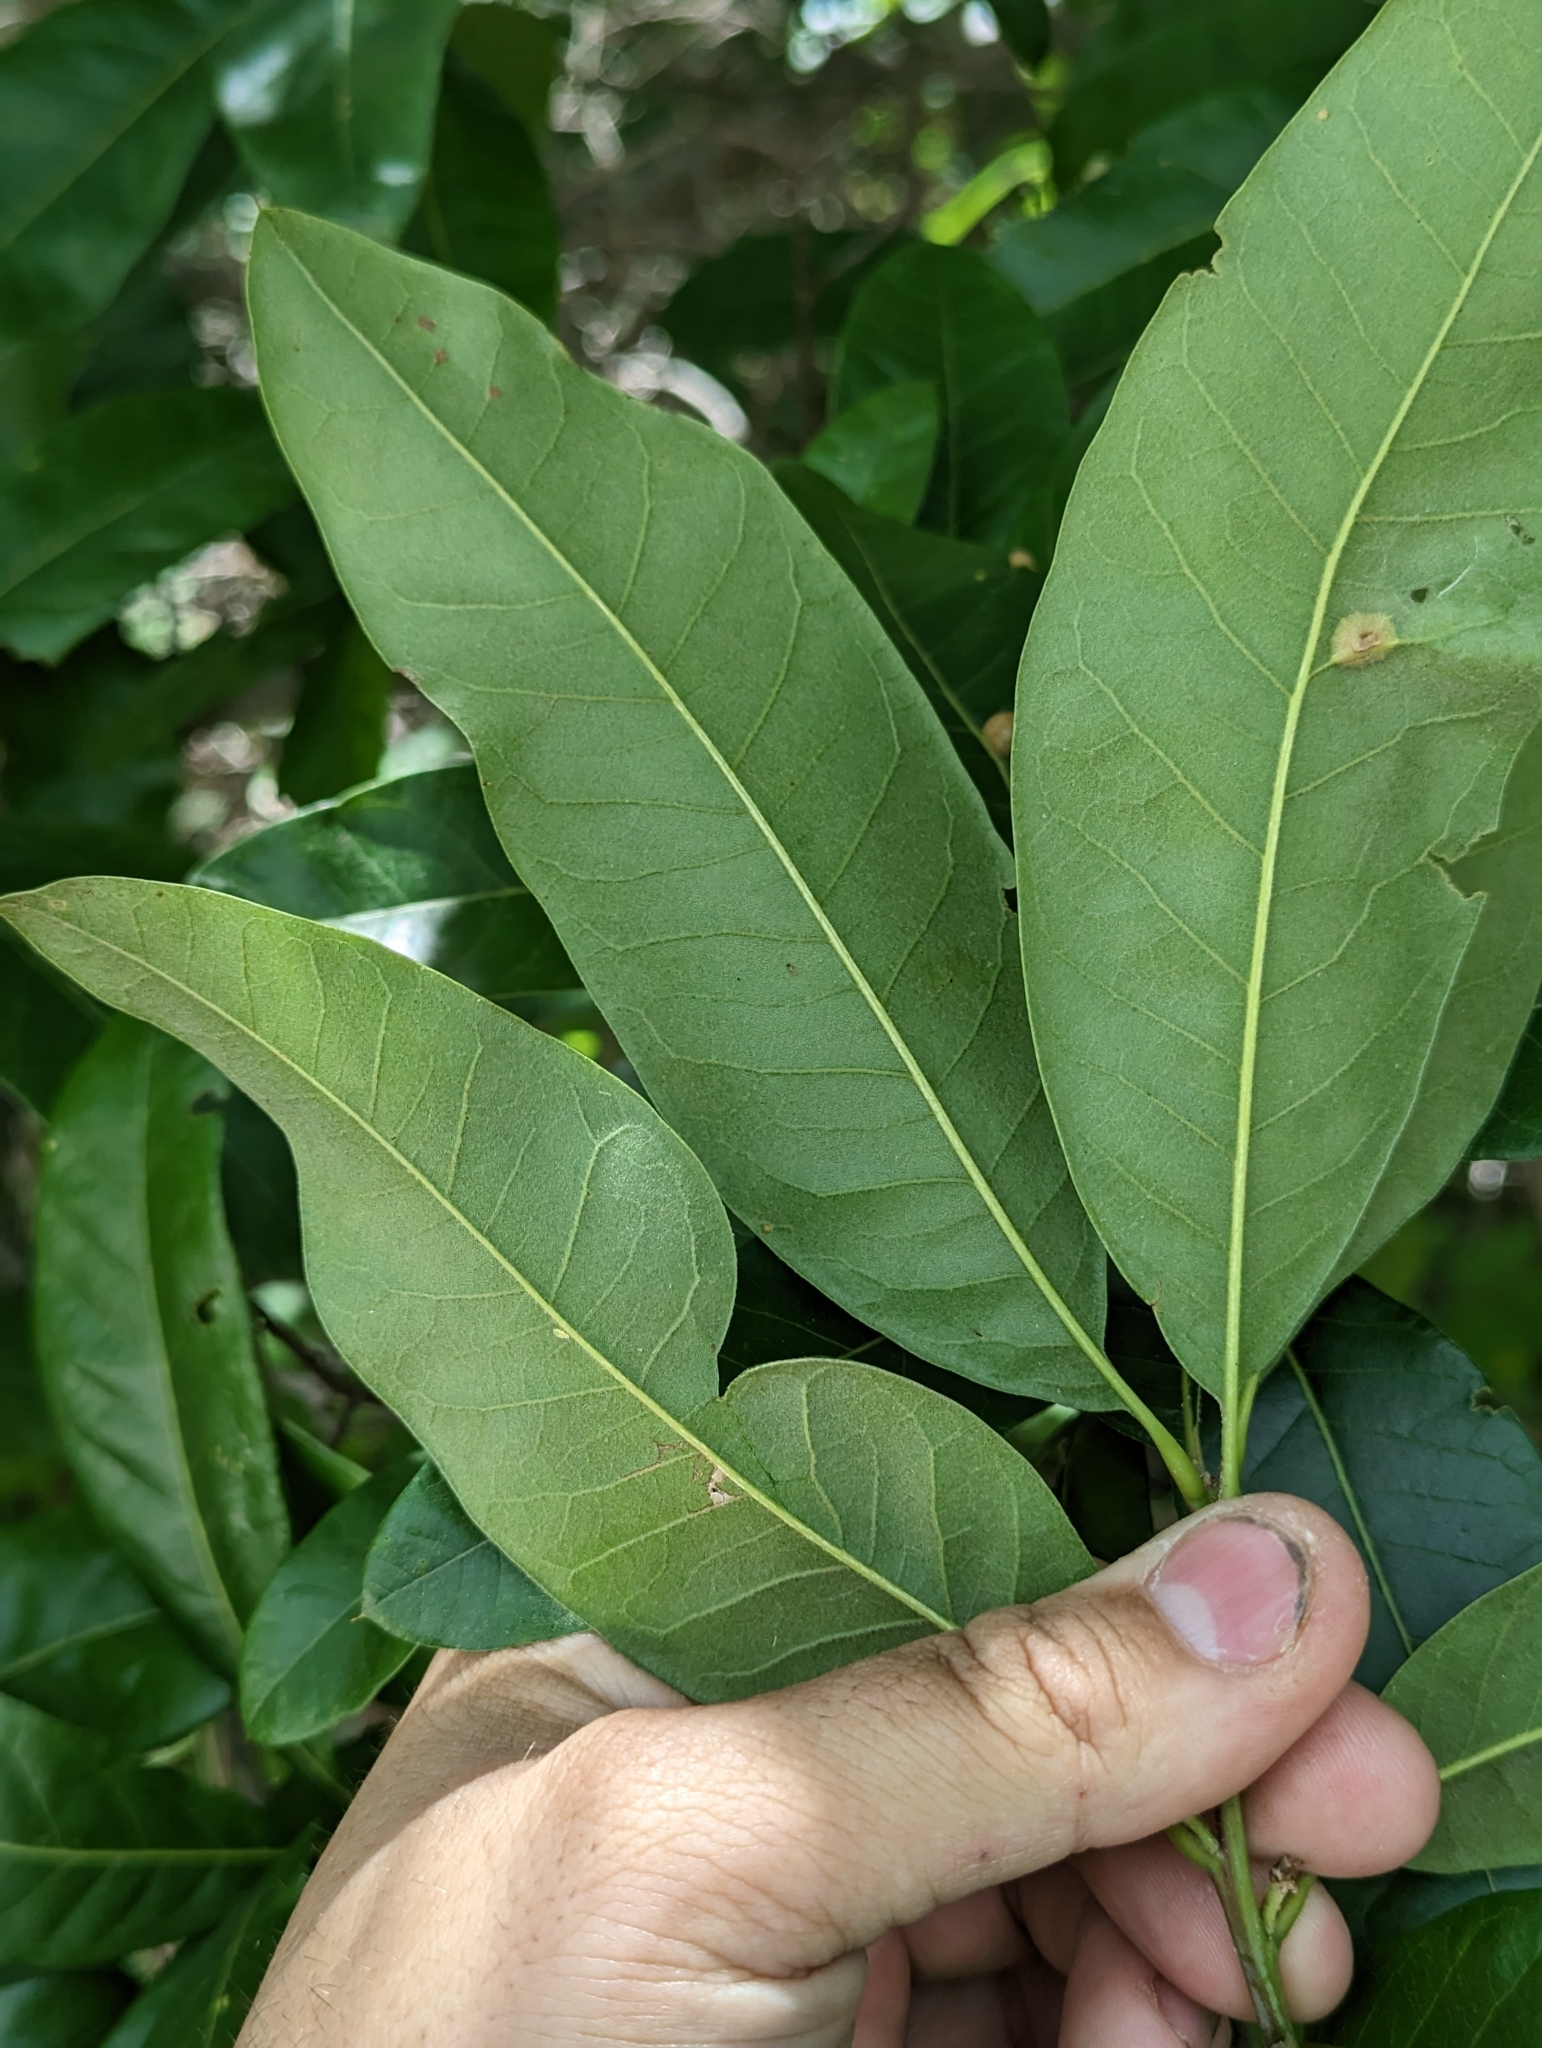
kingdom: Plantae
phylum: Tracheophyta
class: Magnoliopsida
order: Fagales
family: Fagaceae
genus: Quercus
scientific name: Quercus imbricaria
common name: Shingle oak
